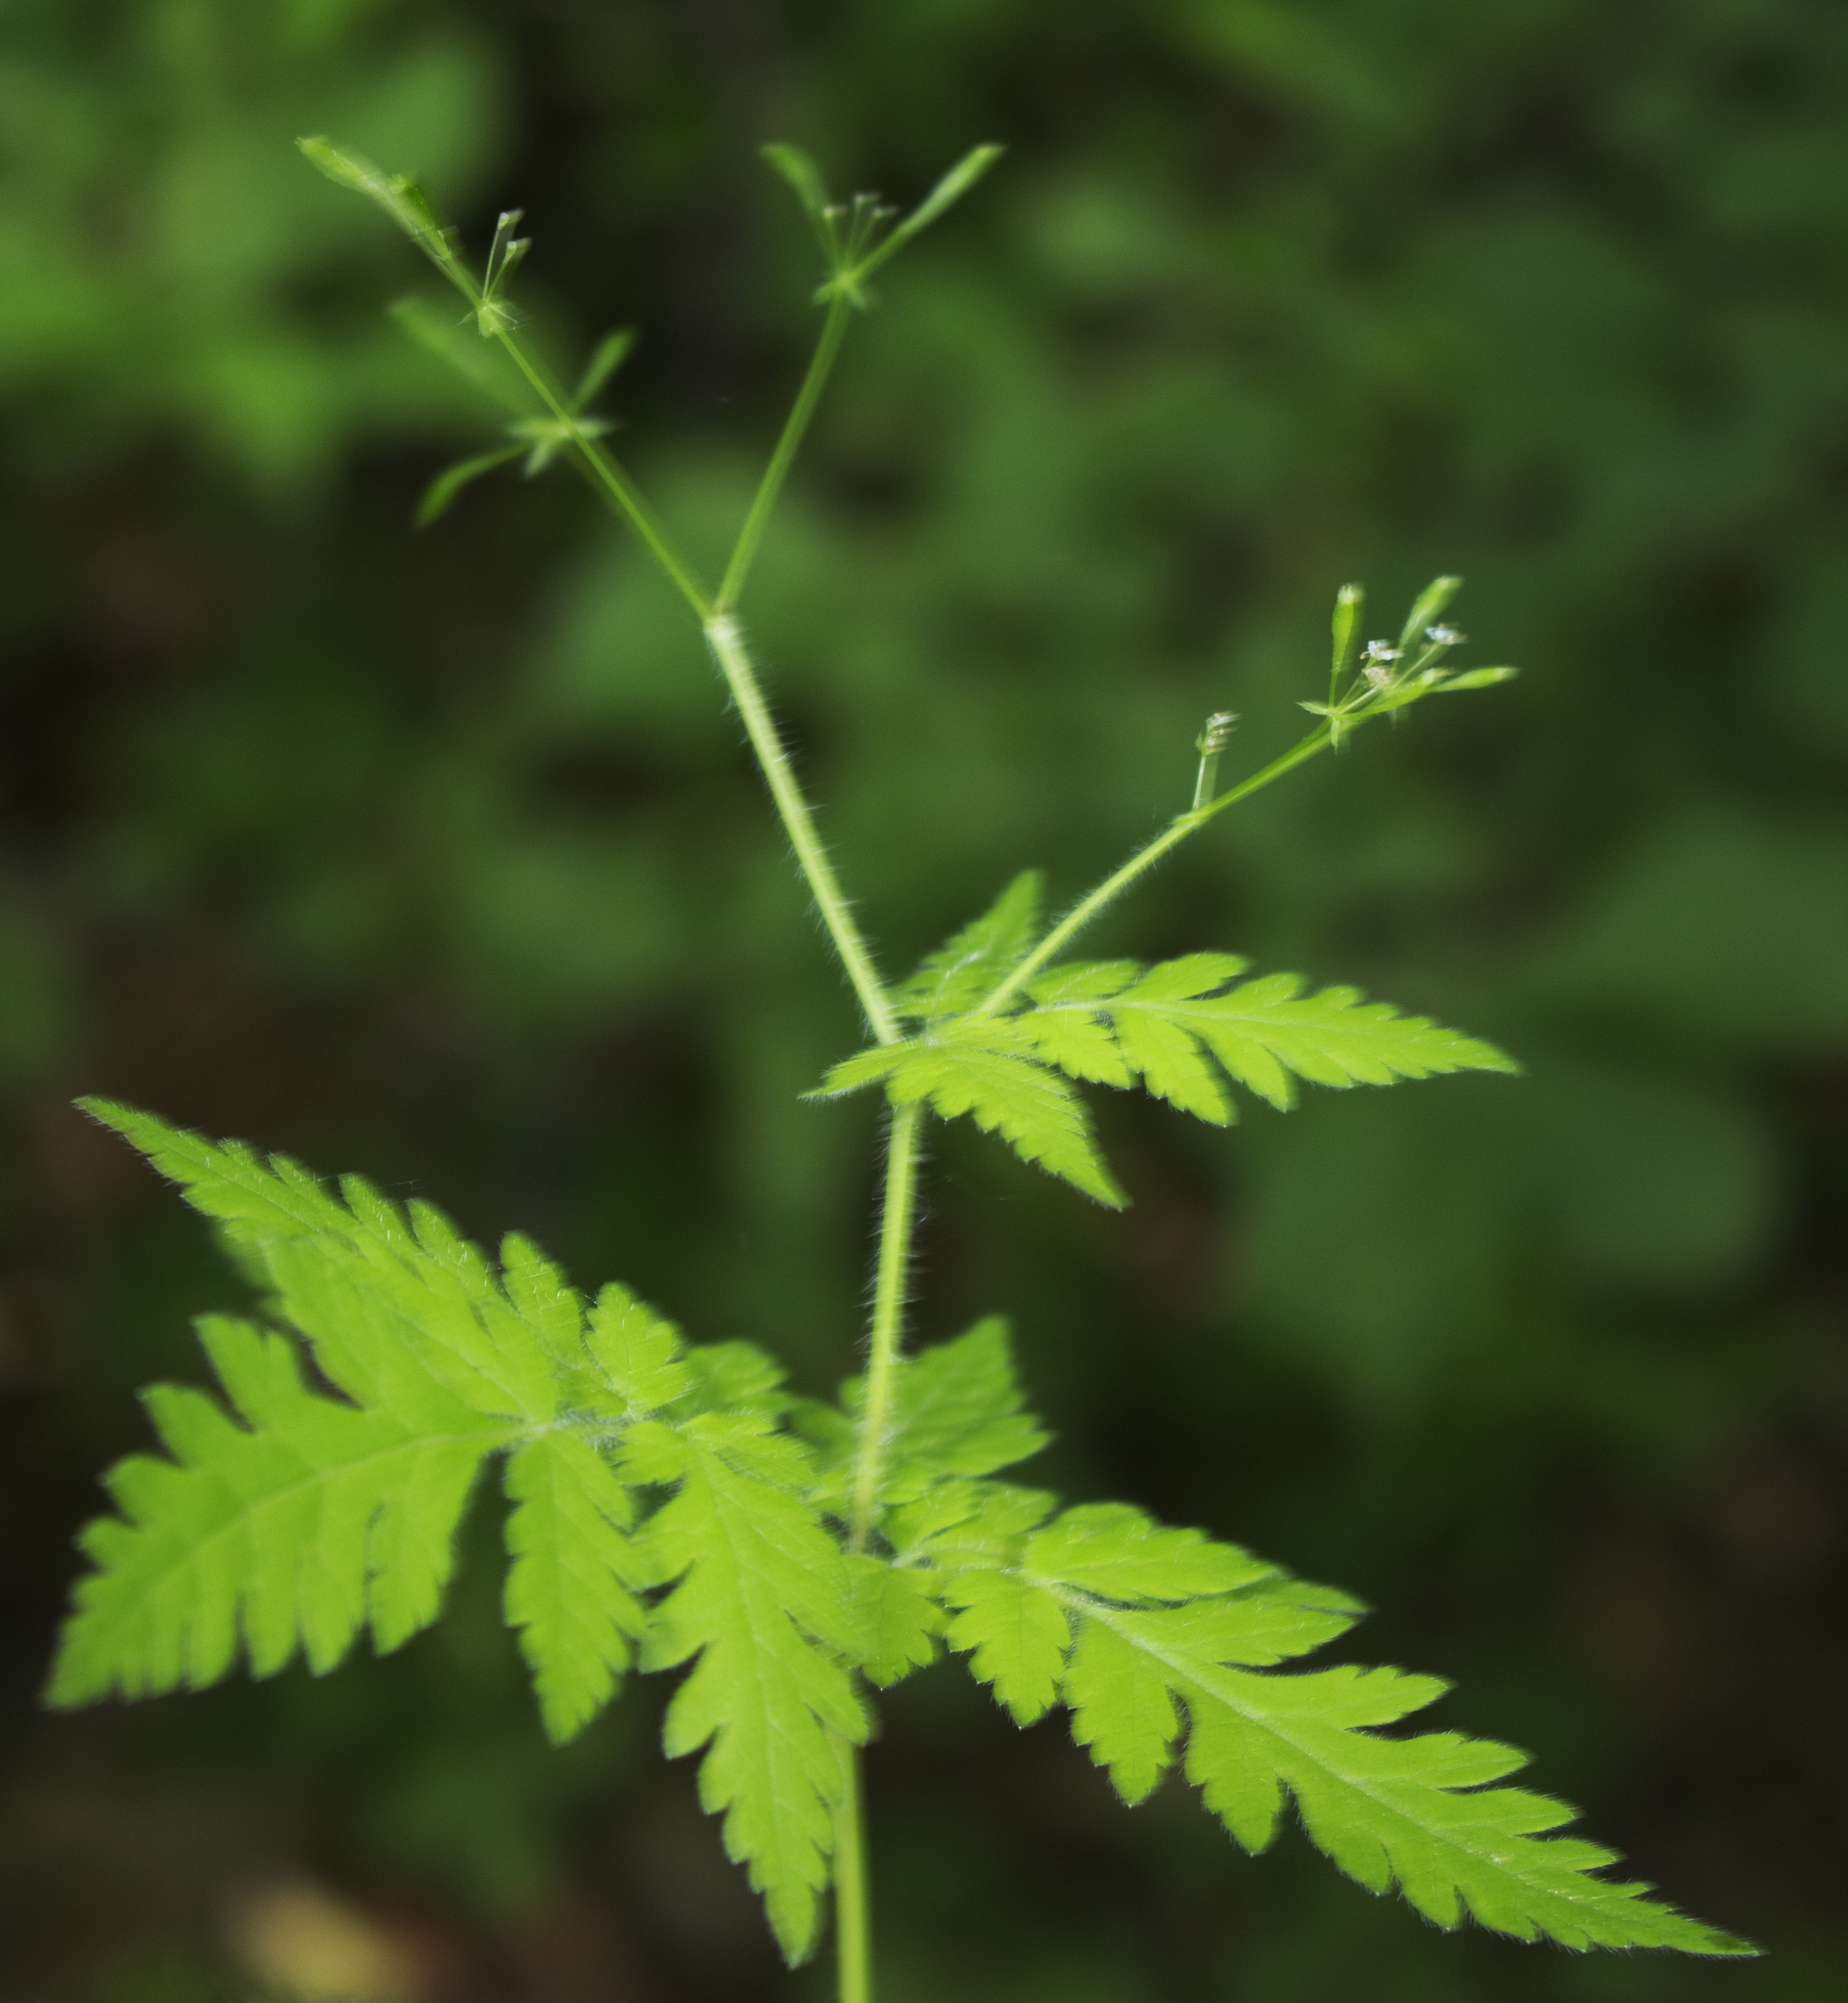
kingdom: Plantae
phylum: Tracheophyta
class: Magnoliopsida
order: Apiales
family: Apiaceae
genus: Osmorhiza
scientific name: Osmorhiza claytonii
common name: Hairy sweet cicely
